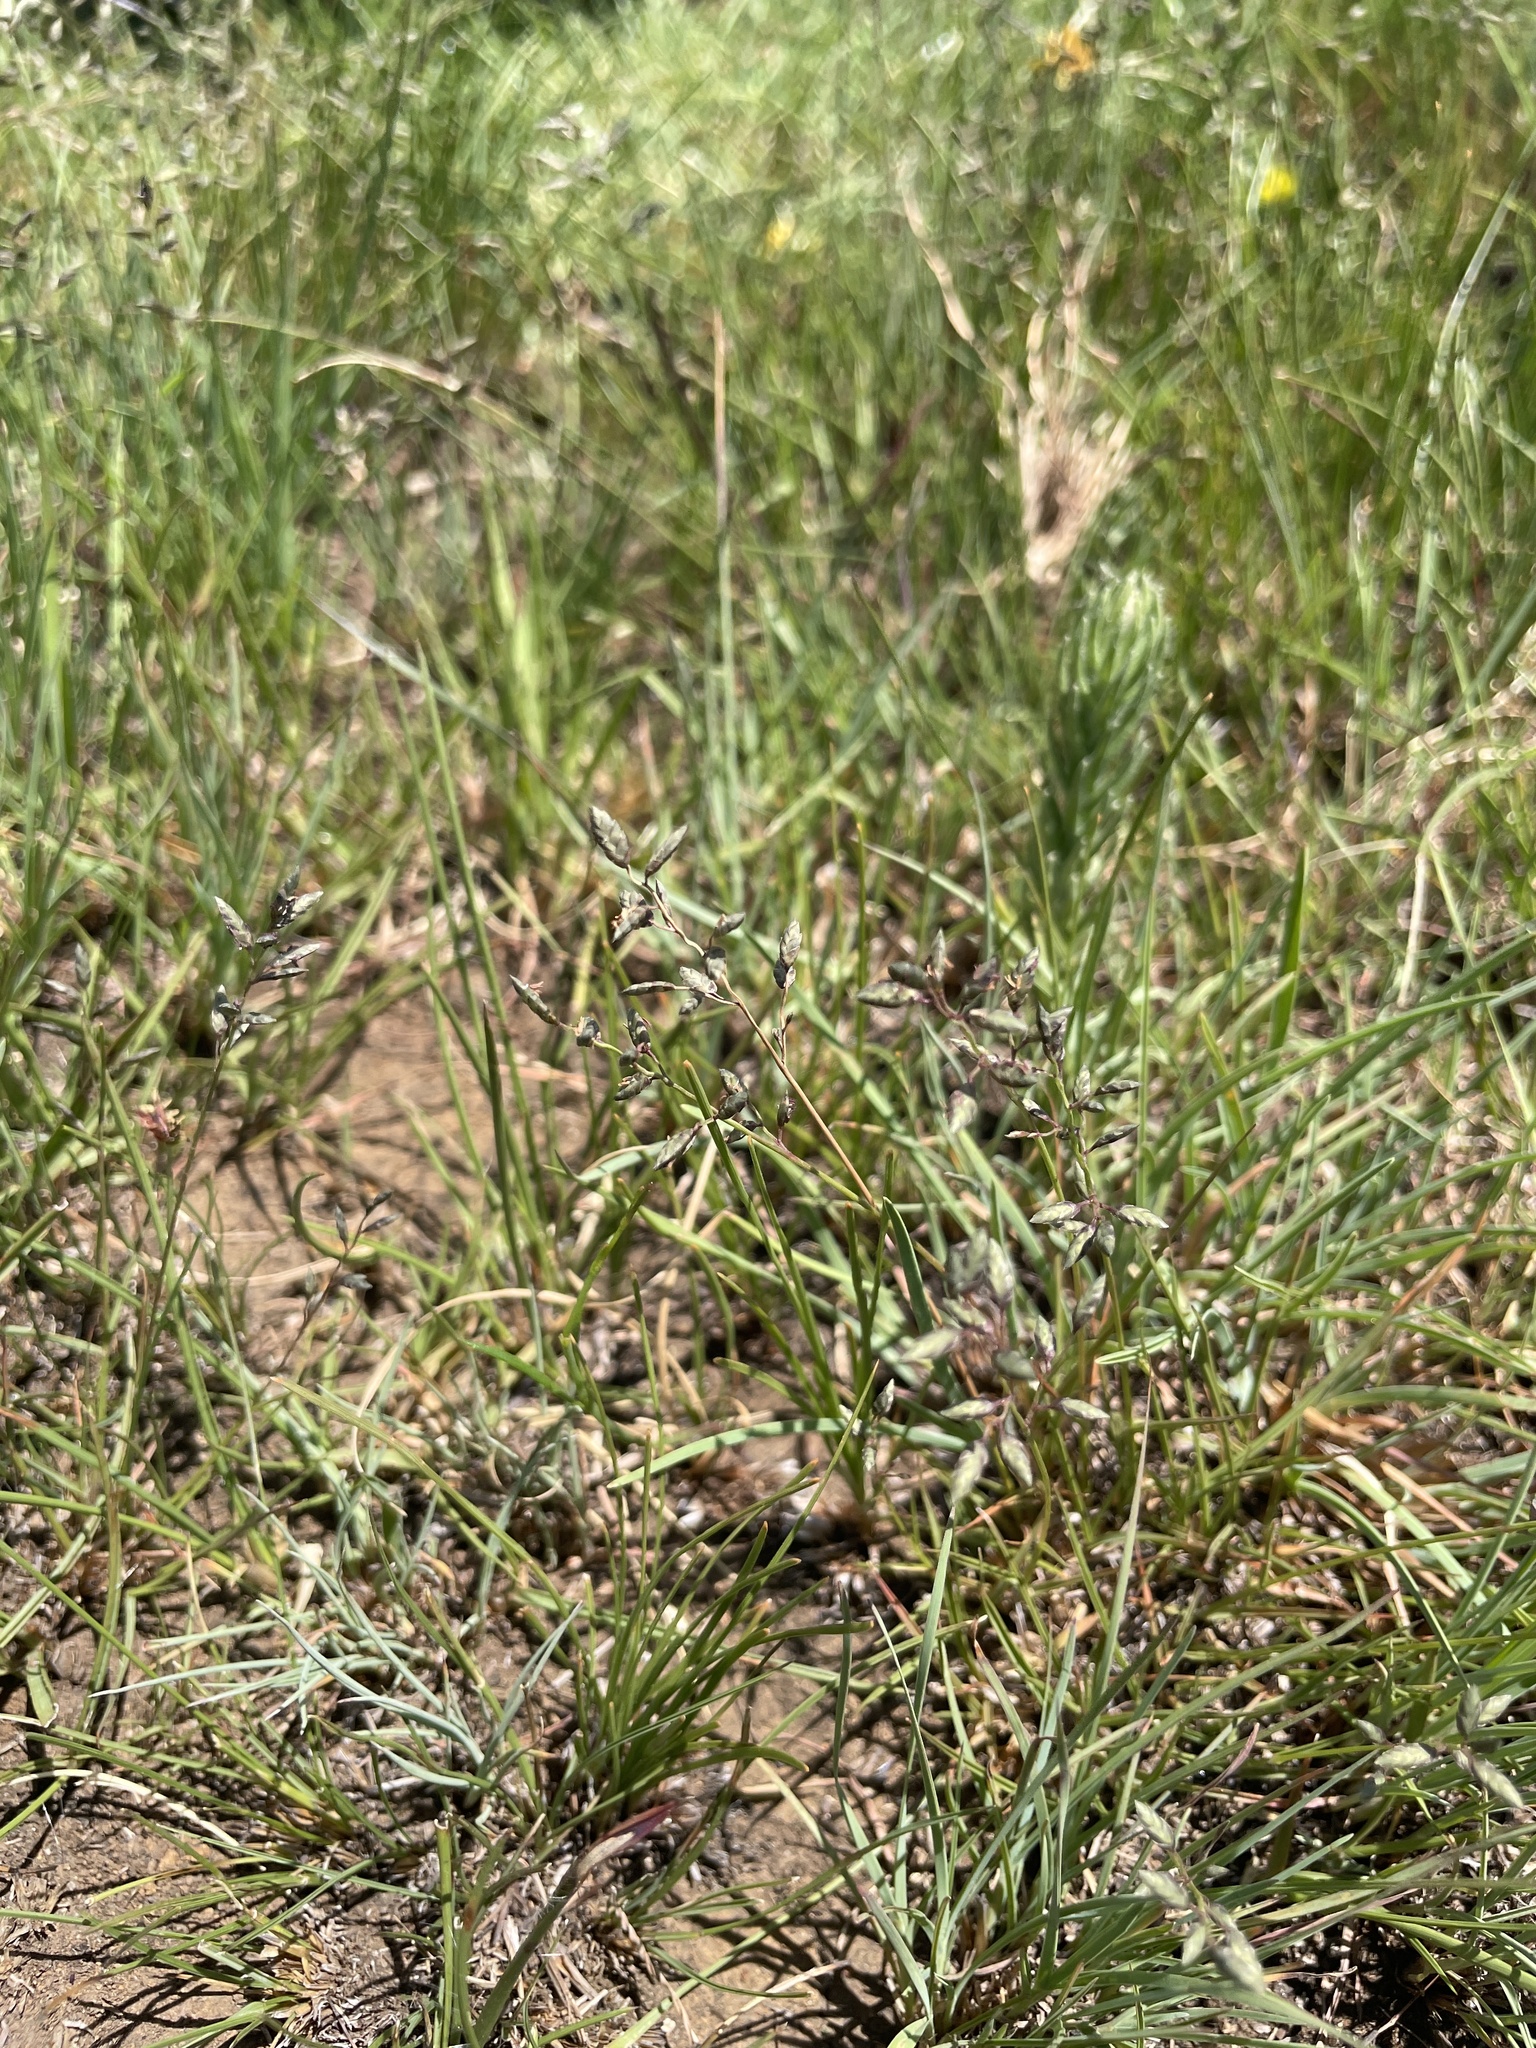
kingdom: Plantae
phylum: Tracheophyta
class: Liliopsida
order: Poales
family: Poaceae
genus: Eragrostis
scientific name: Eragrostis racemosa
